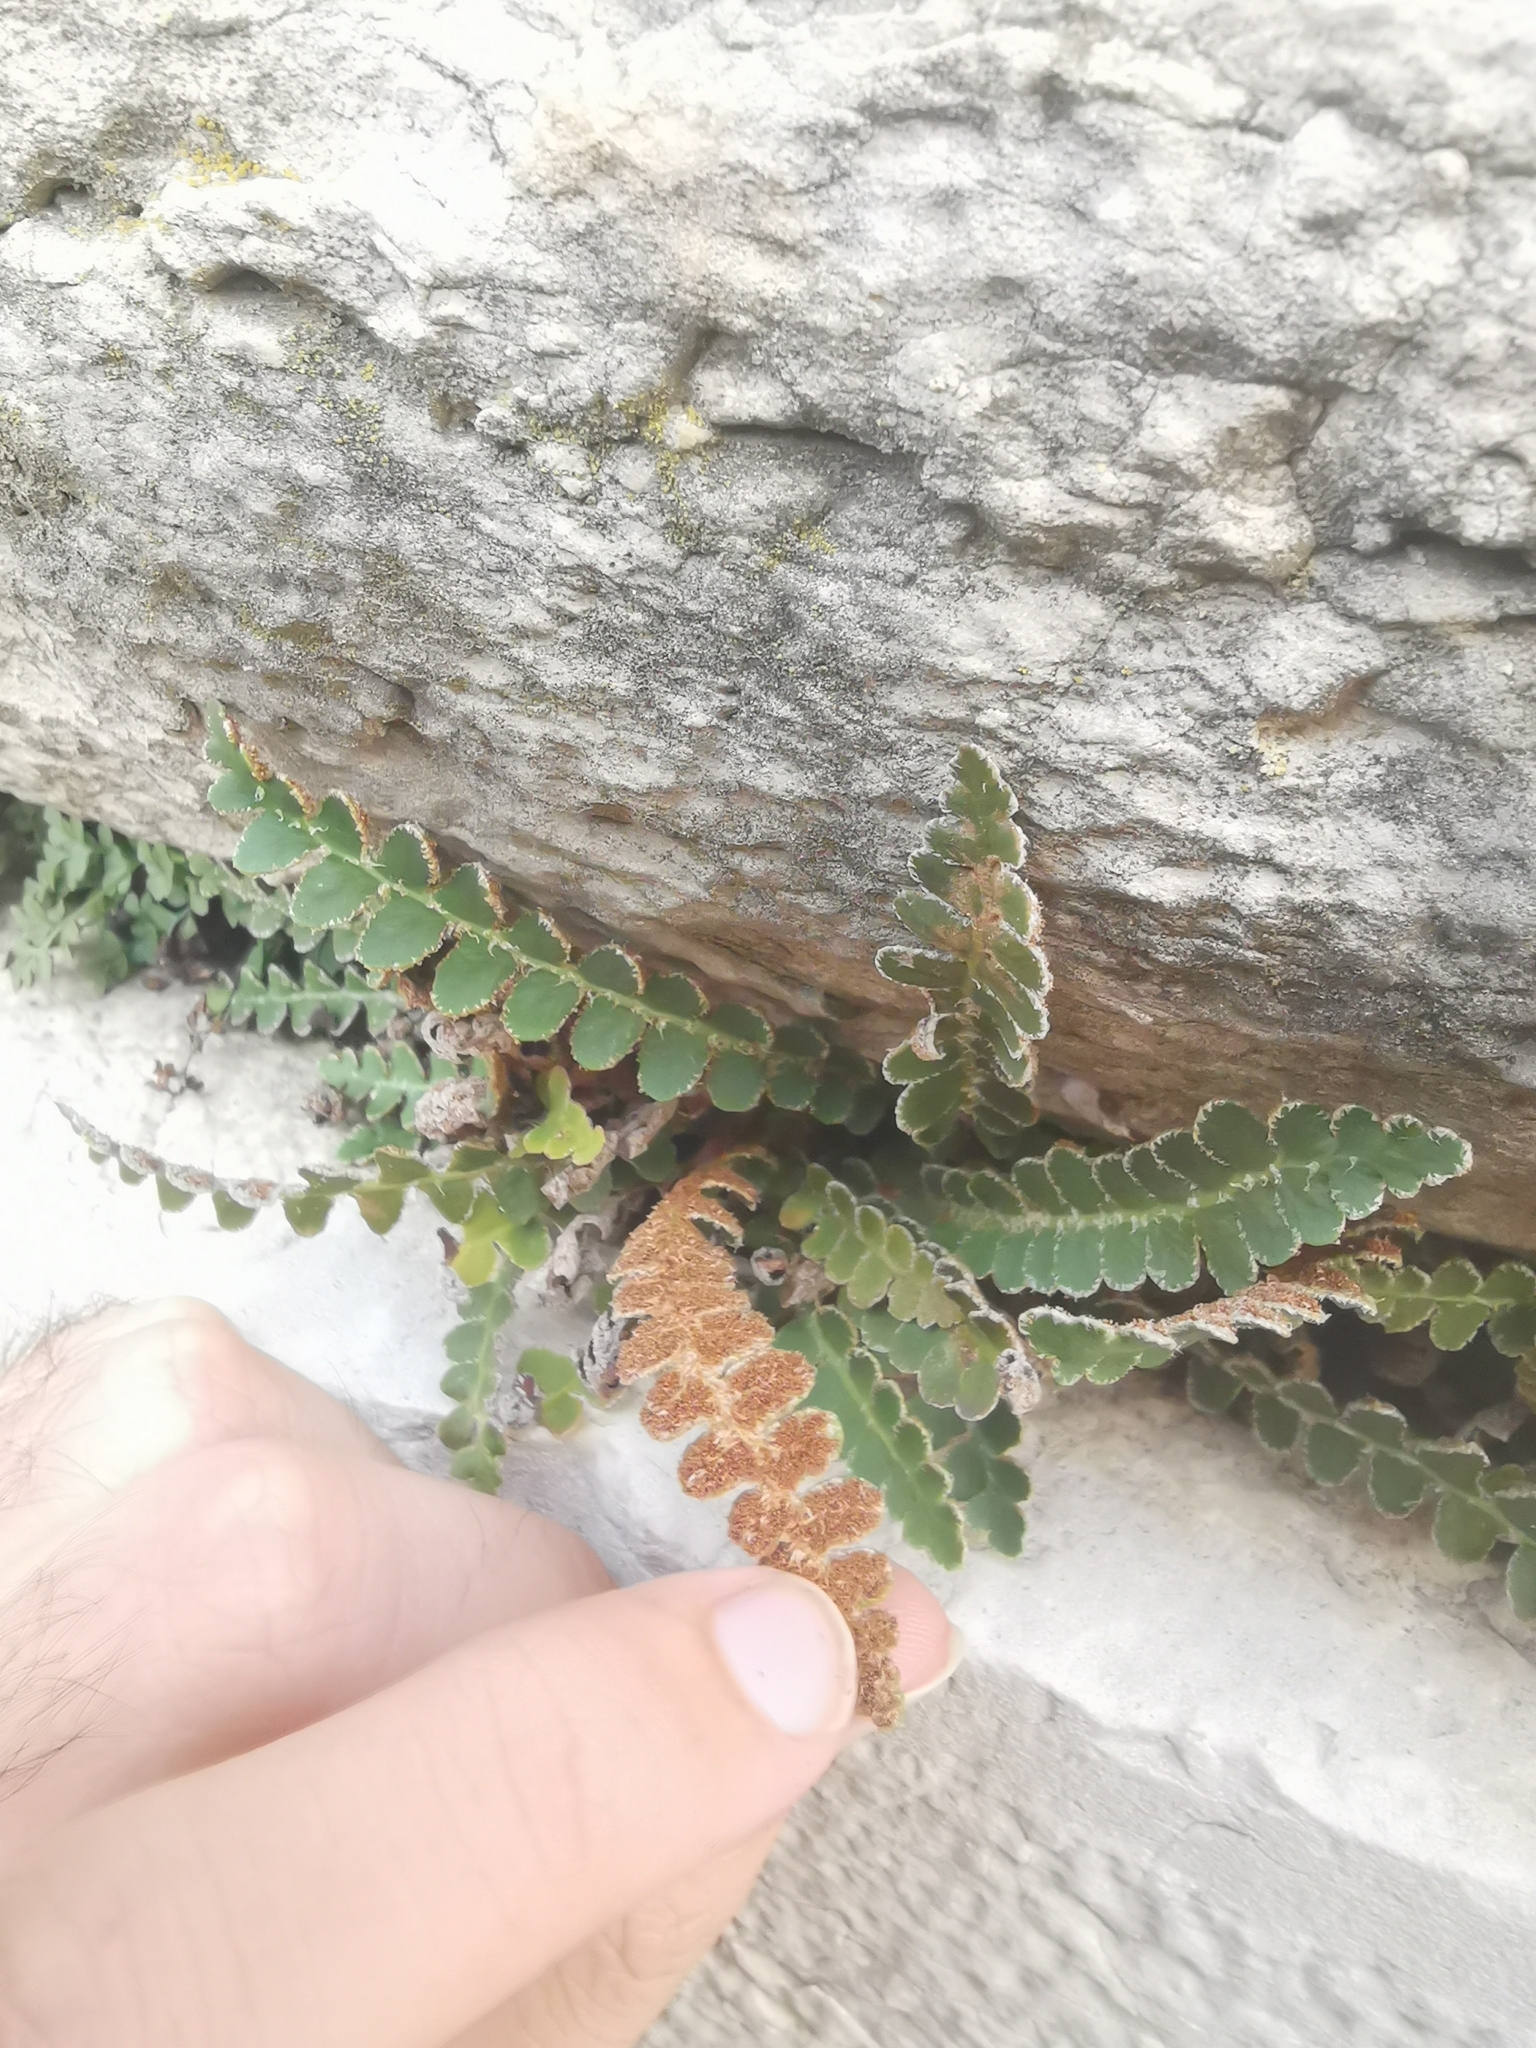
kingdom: Plantae
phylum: Tracheophyta
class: Polypodiopsida
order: Polypodiales
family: Aspleniaceae
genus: Asplenium
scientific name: Asplenium ceterach
